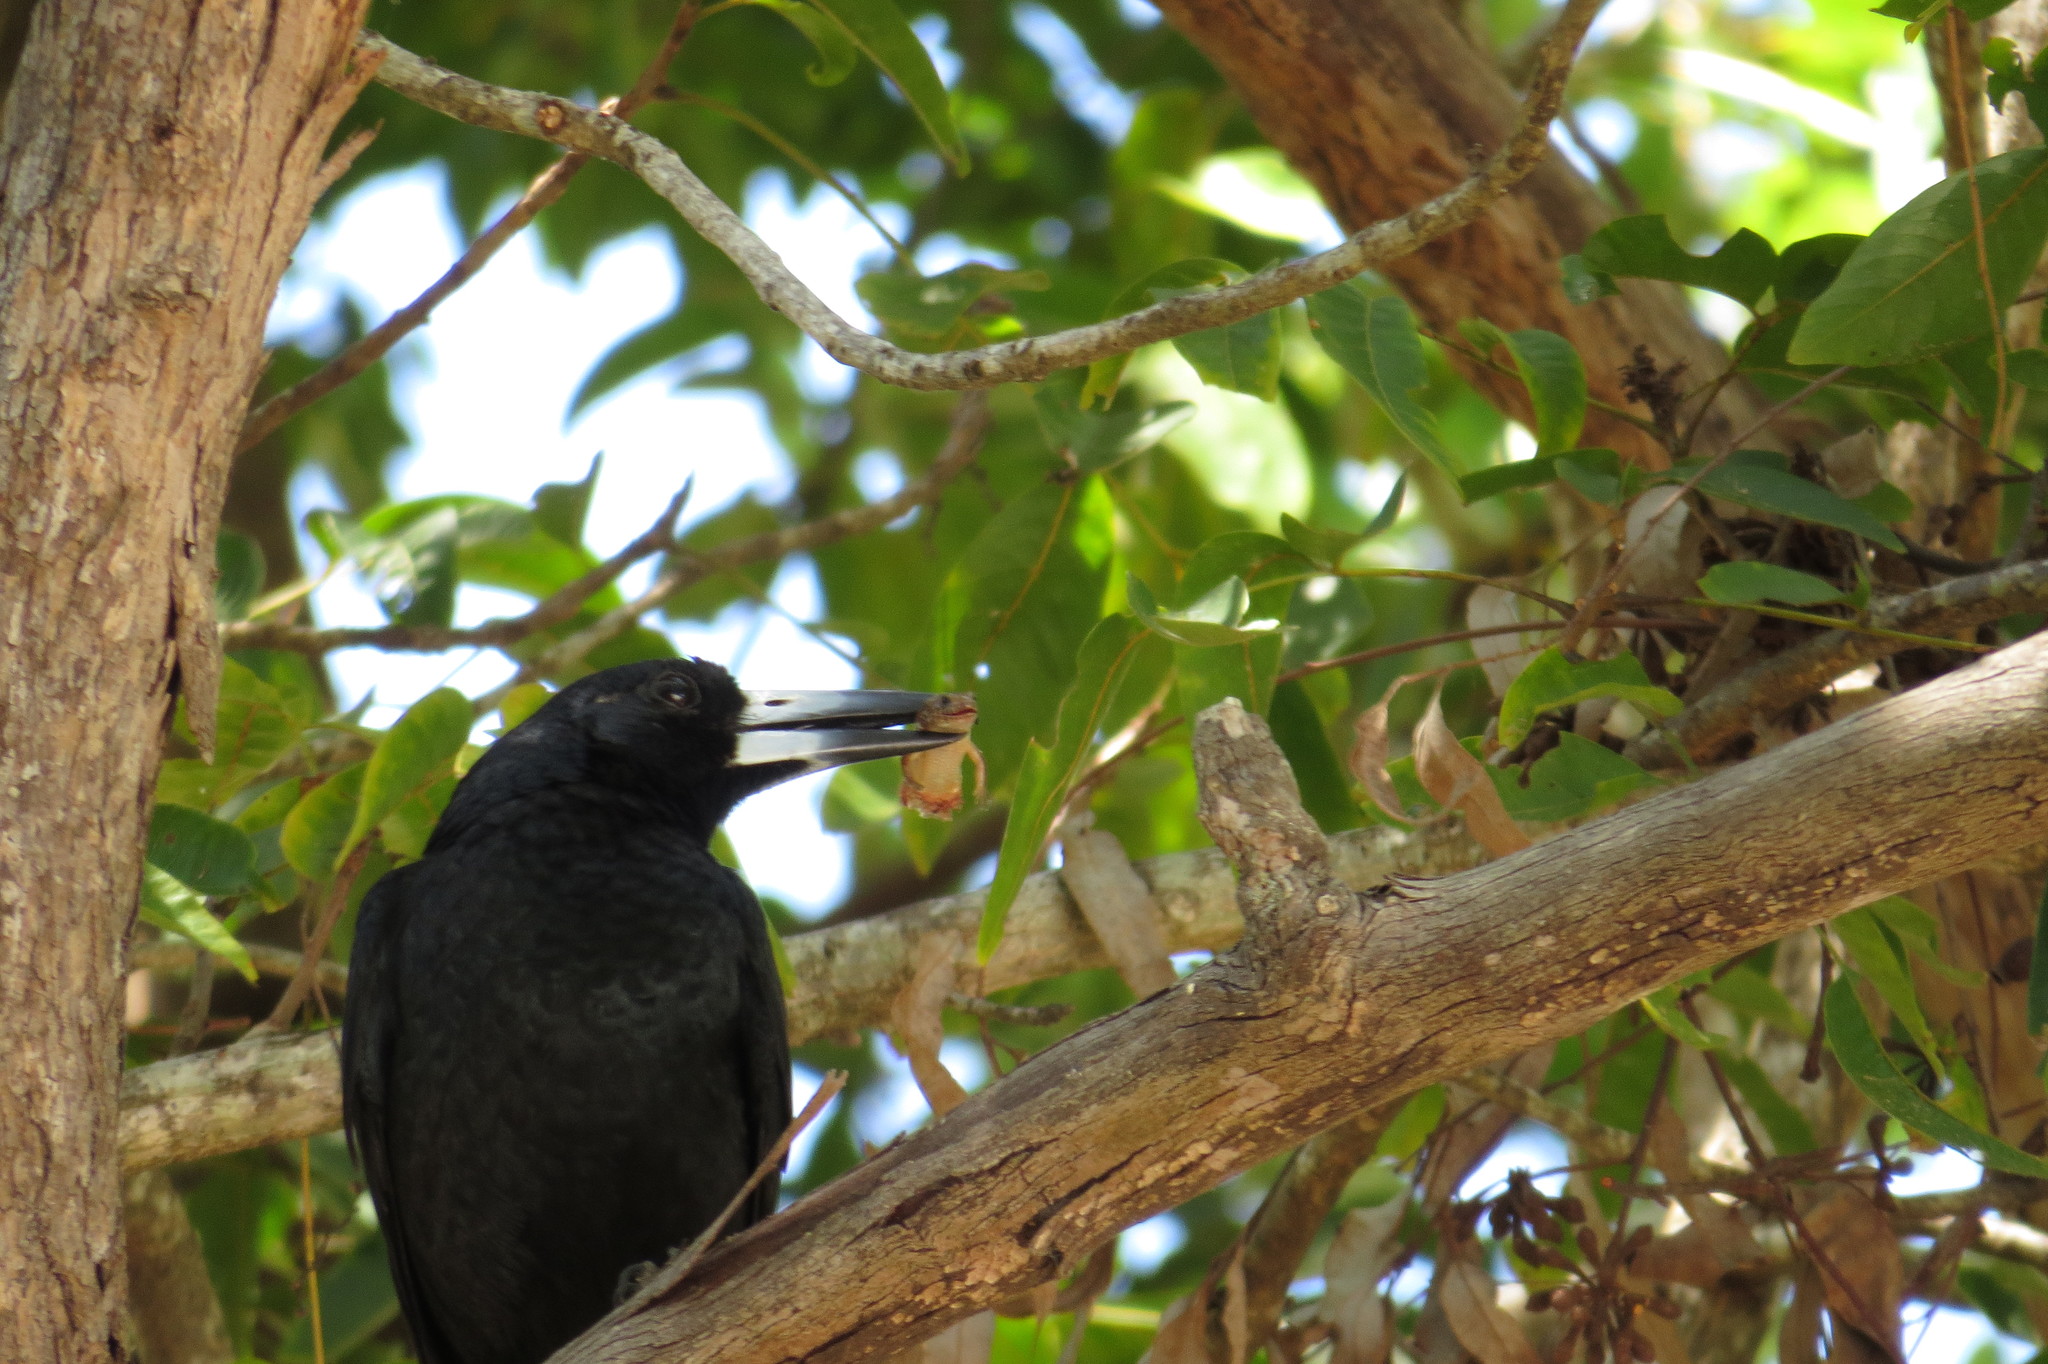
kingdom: Animalia
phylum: Chordata
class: Aves
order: Passeriformes
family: Artamidae
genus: Melloria
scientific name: Melloria quoyi
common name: Black butcherbird
